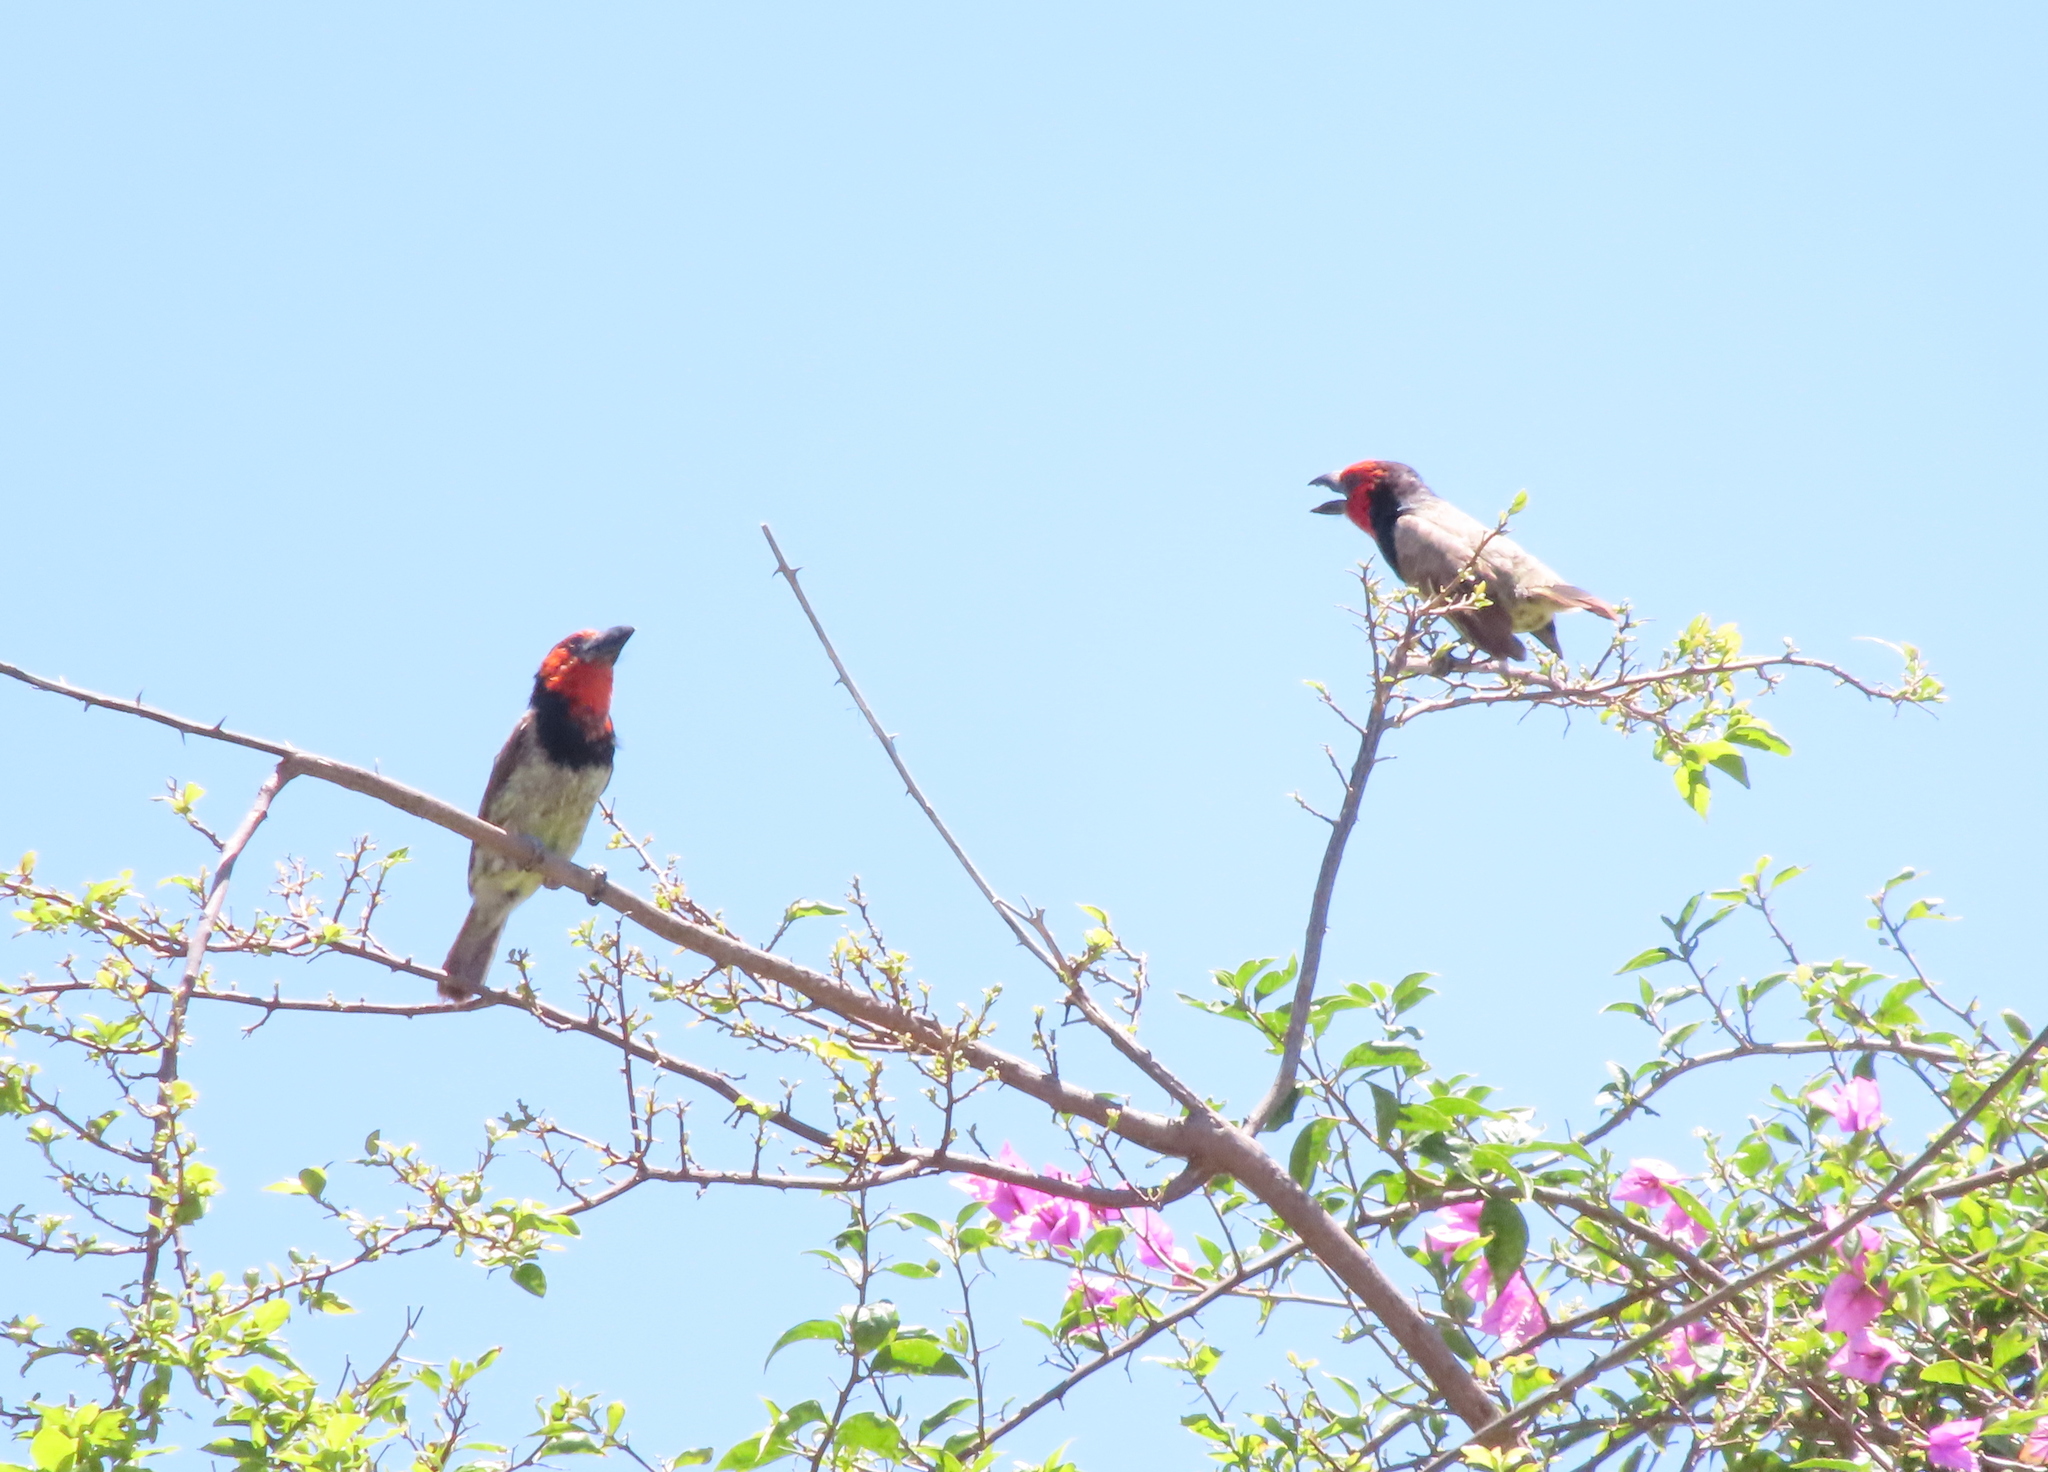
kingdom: Animalia
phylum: Chordata
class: Aves
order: Piciformes
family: Lybiidae
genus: Lybius
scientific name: Lybius torquatus
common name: Black-collared barbet
